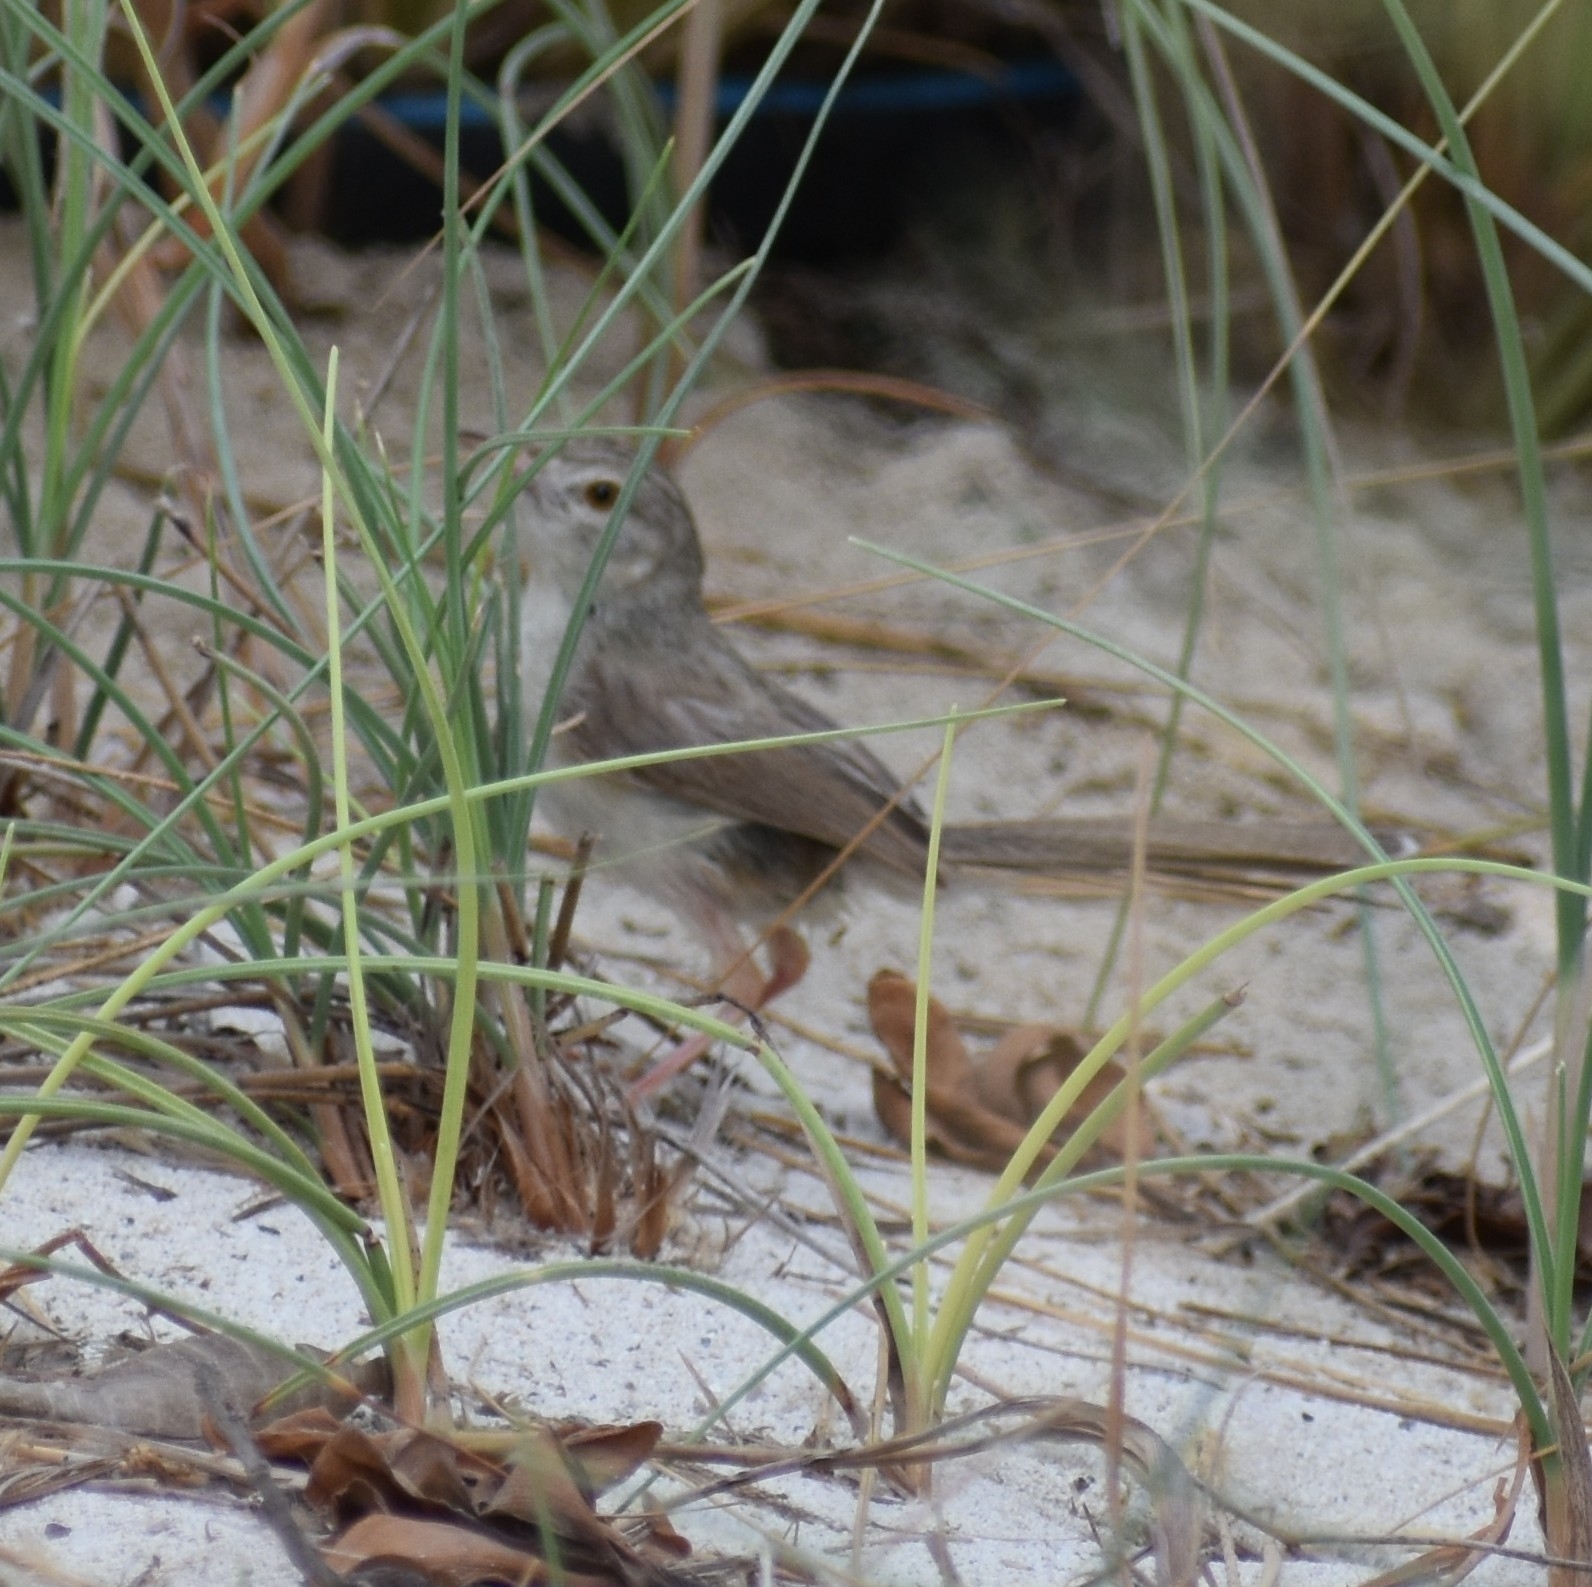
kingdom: Animalia
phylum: Chordata
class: Aves
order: Passeriformes
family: Cisticolidae
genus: Prinia
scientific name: Prinia lepida
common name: Delicate prinia
